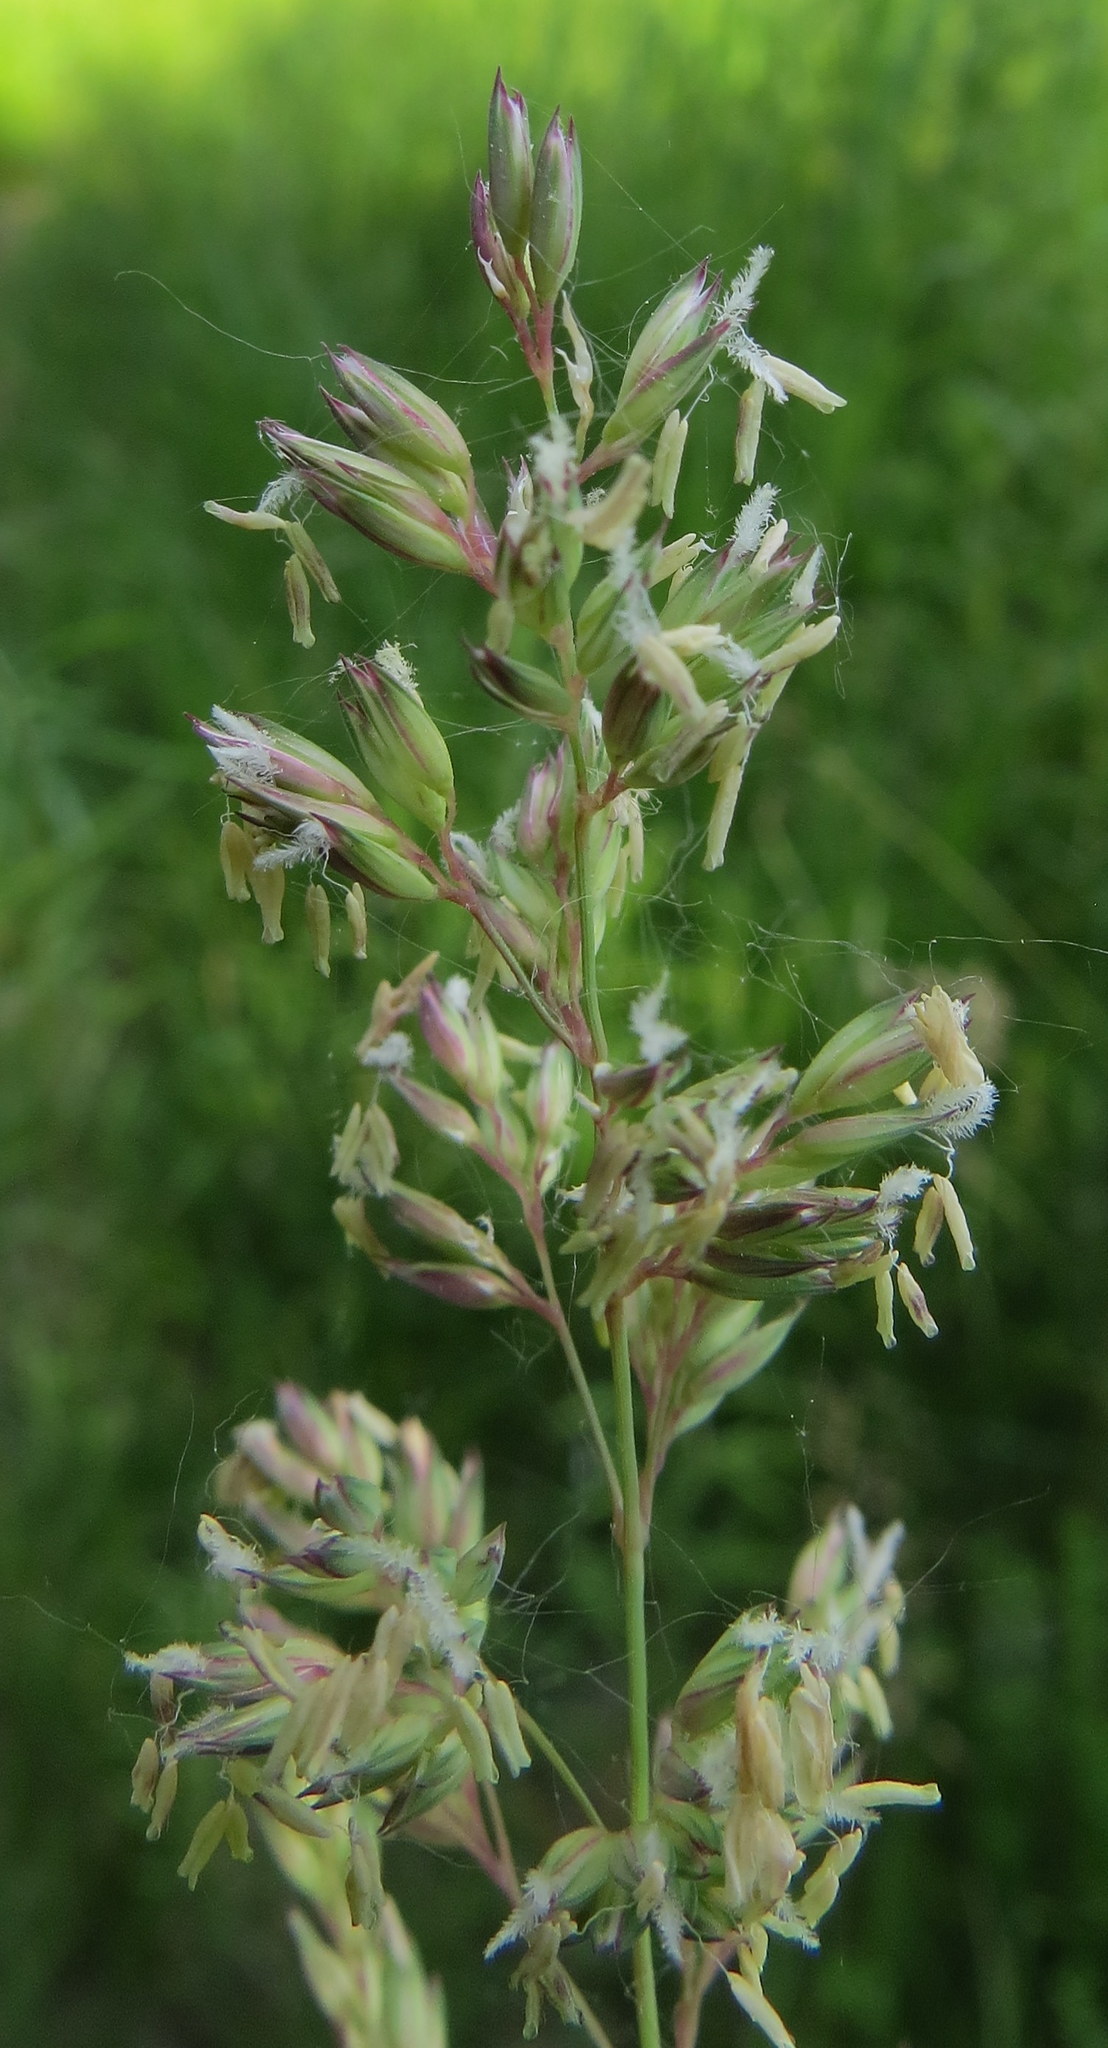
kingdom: Plantae
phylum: Tracheophyta
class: Liliopsida
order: Poales
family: Poaceae
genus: Dactylis
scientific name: Dactylis glomerata
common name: Orchardgrass
